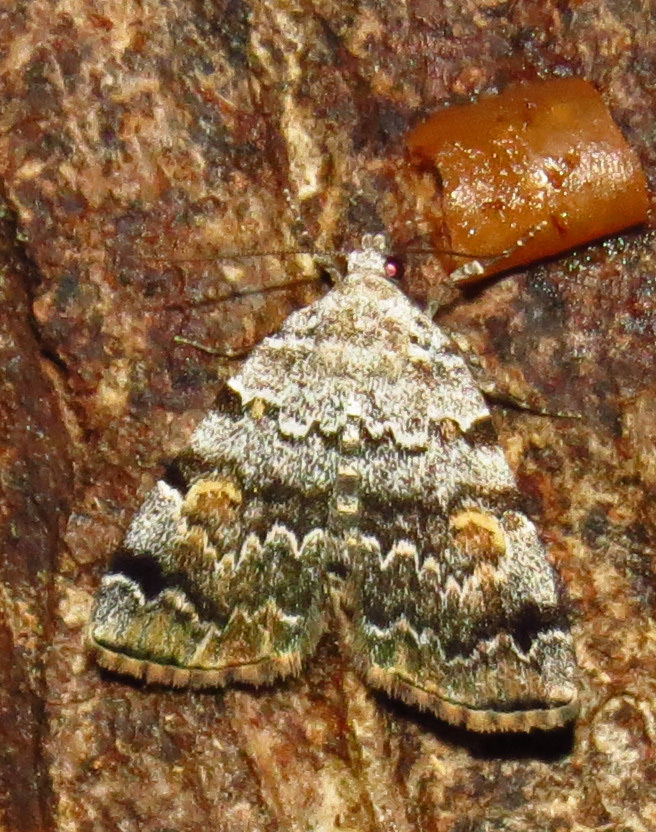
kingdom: Animalia
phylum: Arthropoda
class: Insecta
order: Lepidoptera
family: Erebidae
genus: Idia
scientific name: Idia americalis
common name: American idia moth
